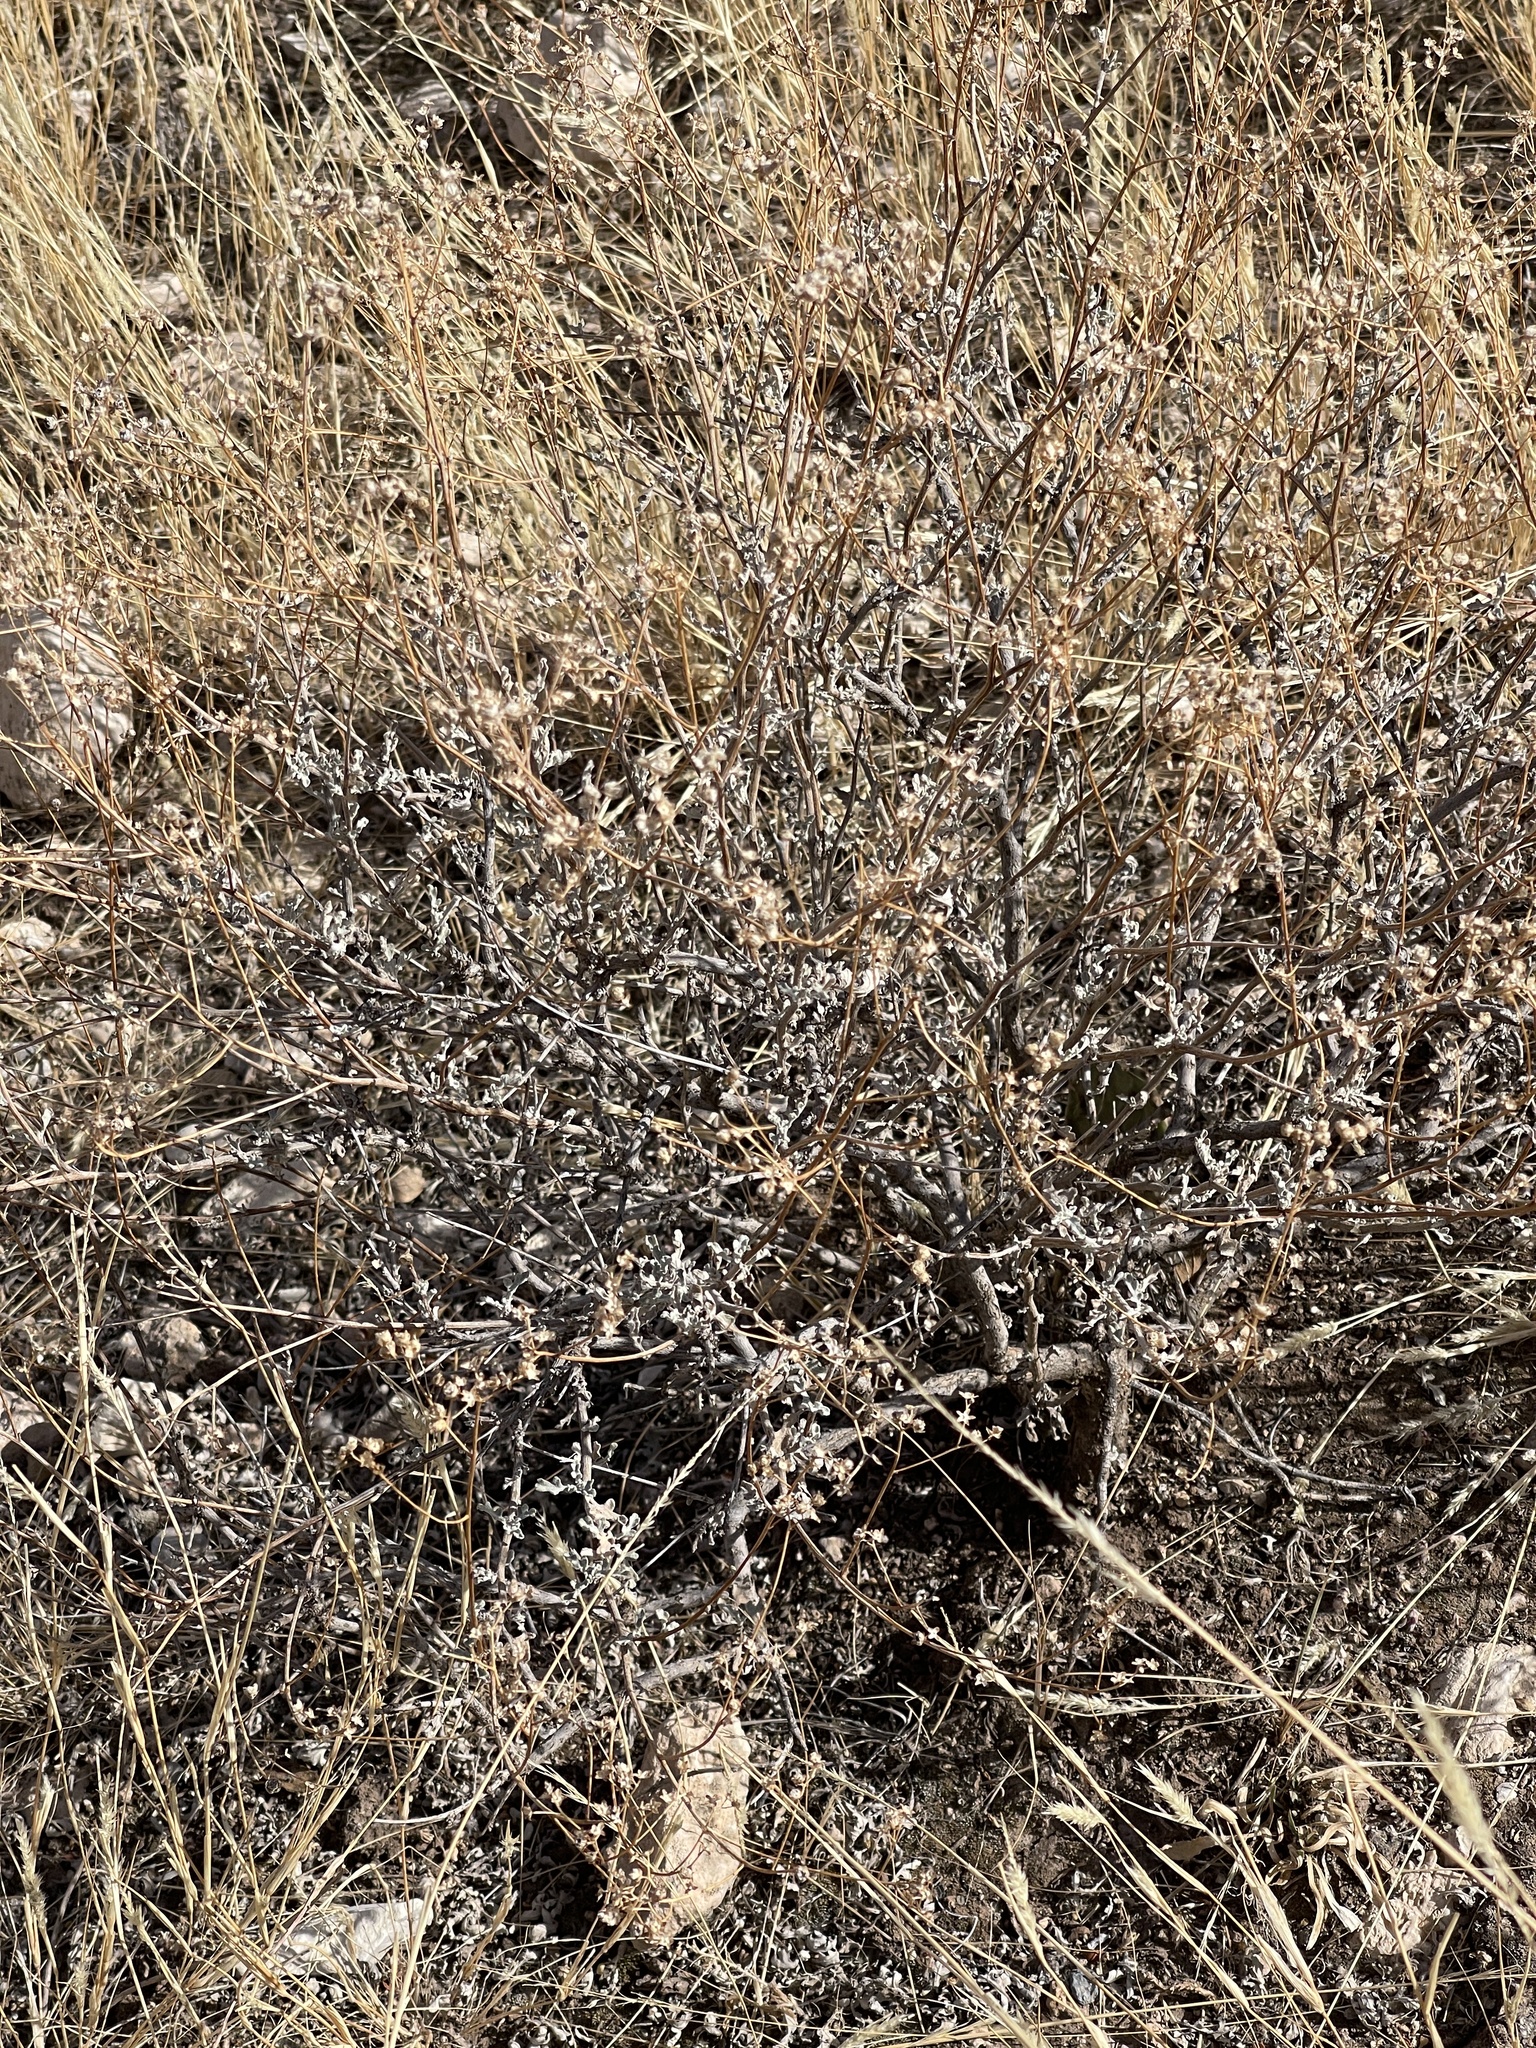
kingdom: Plantae
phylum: Tracheophyta
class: Magnoliopsida
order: Asterales
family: Asteraceae
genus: Parthenium
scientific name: Parthenium incanum
